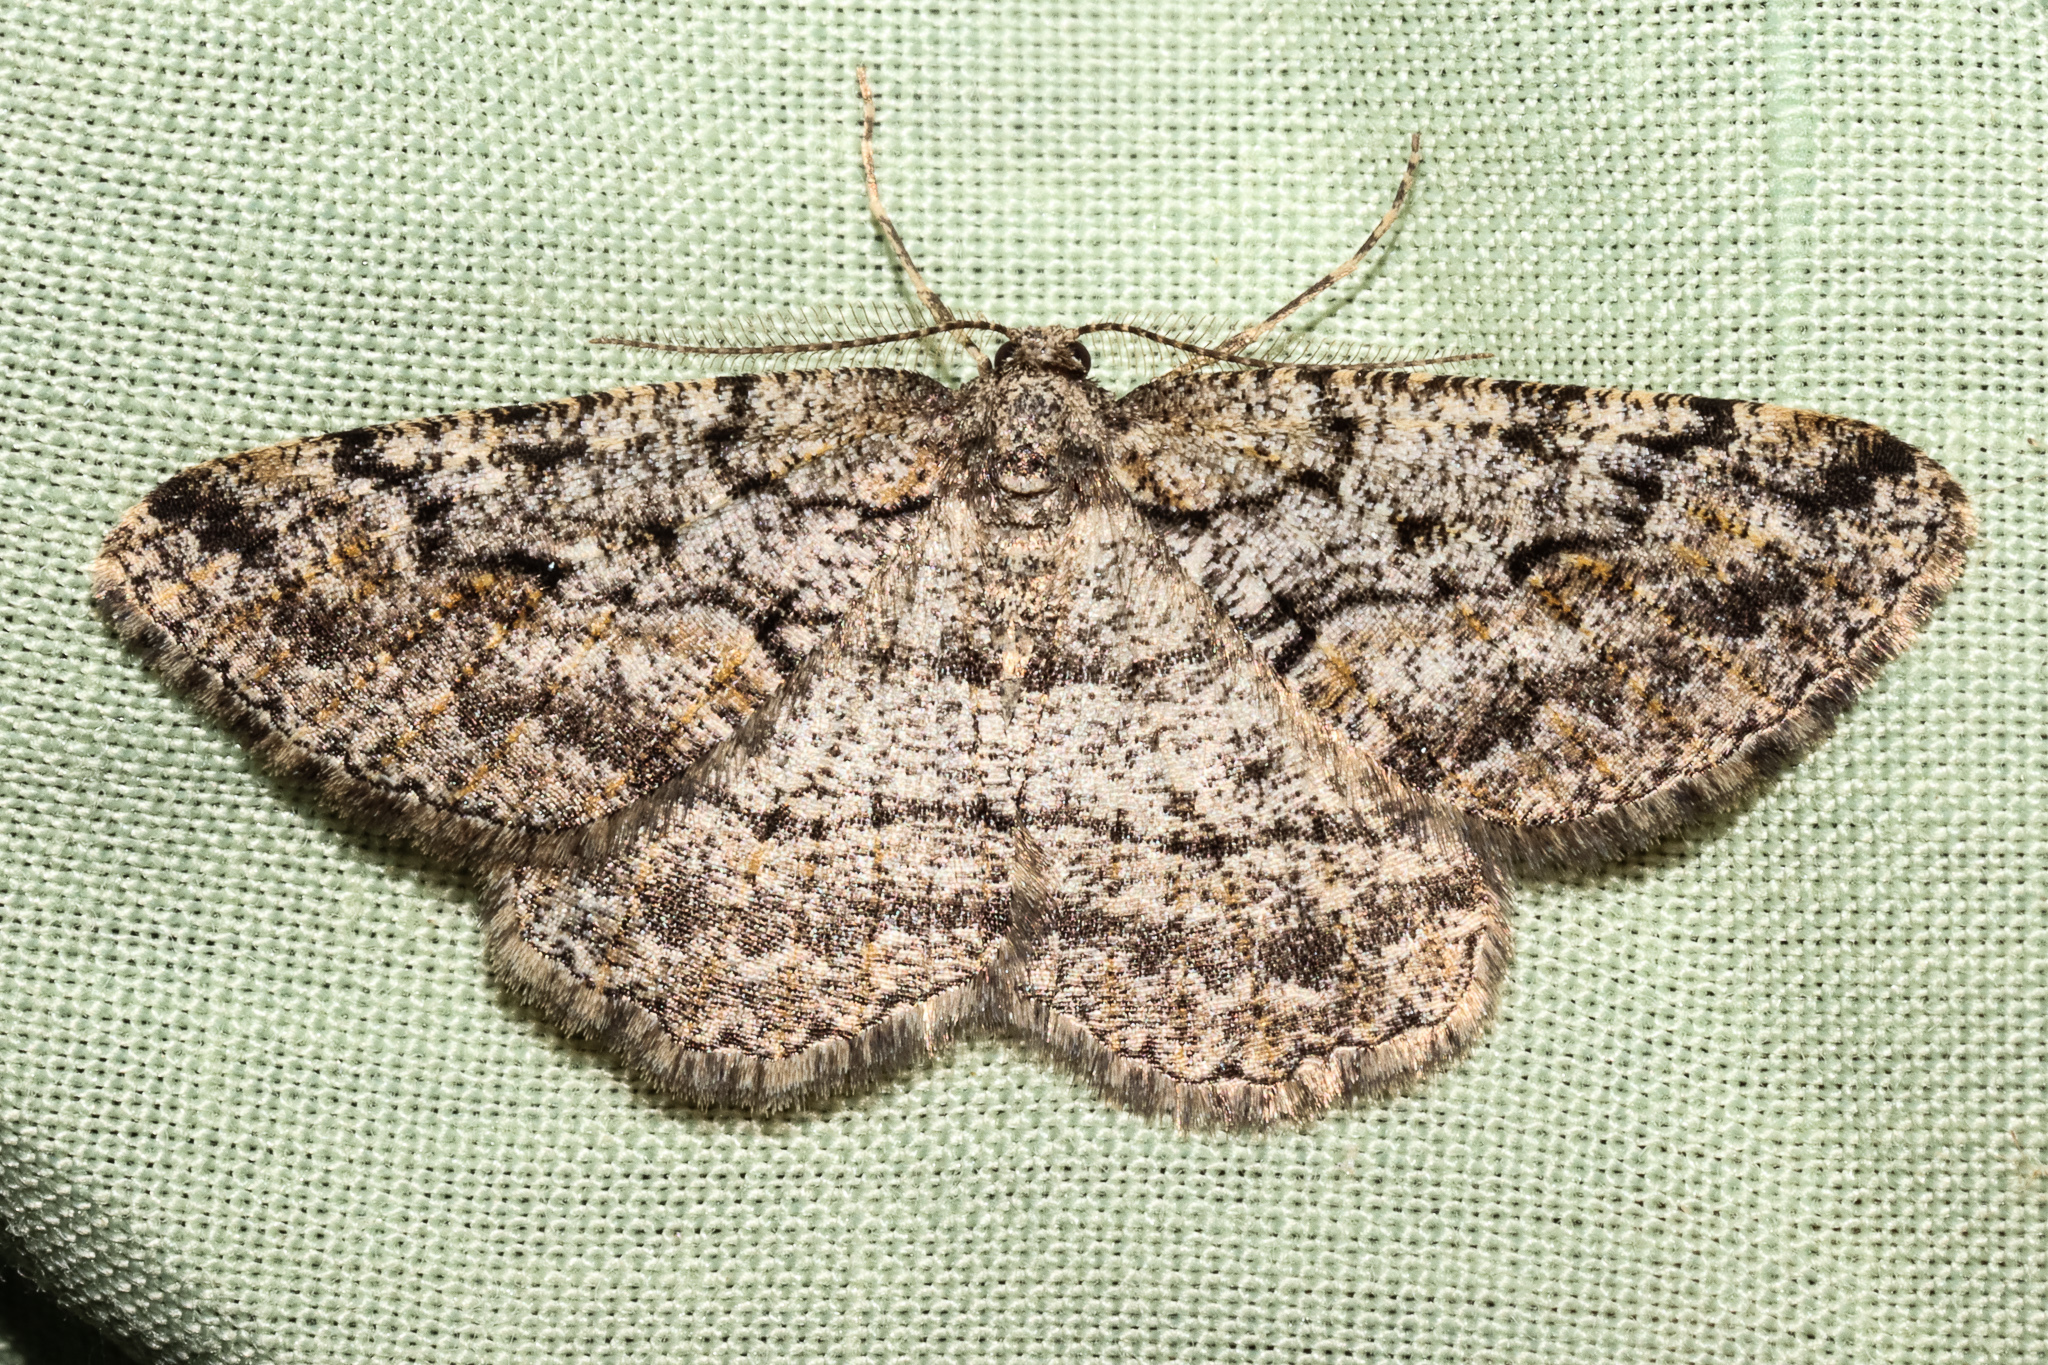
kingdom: Animalia
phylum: Arthropoda
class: Insecta
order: Lepidoptera
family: Geometridae
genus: Zermizinga
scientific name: Zermizinga indocilisaria
